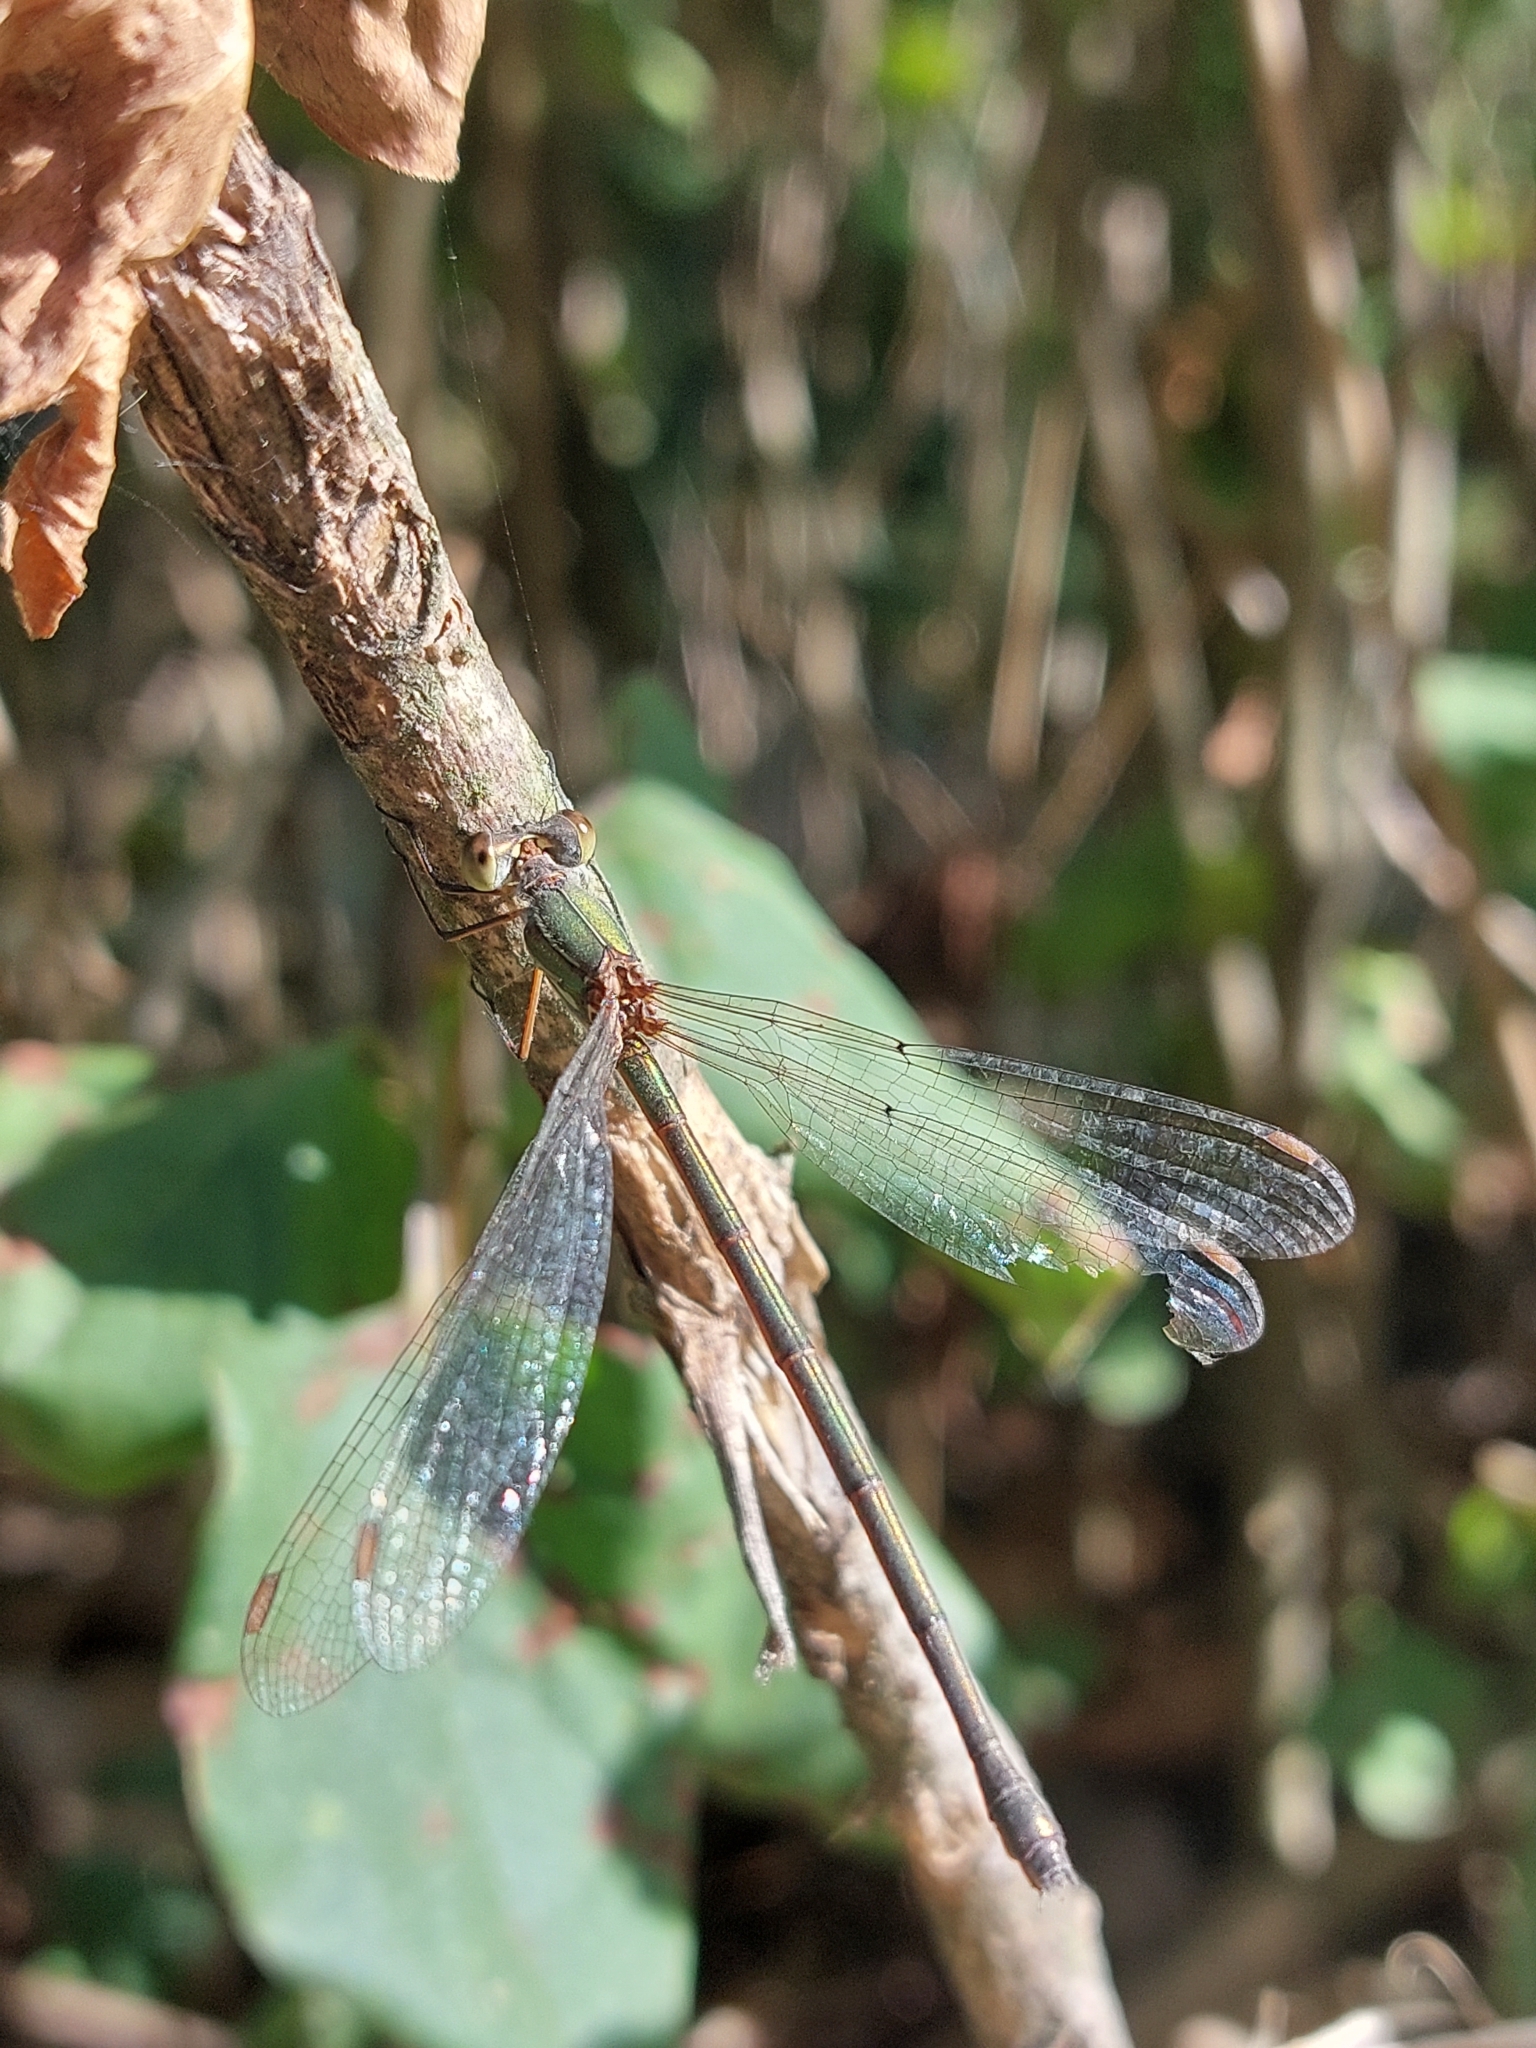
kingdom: Animalia
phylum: Arthropoda
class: Insecta
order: Odonata
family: Lestidae
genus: Chalcolestes
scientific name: Chalcolestes parvidens
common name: Eastern willow spreadwing
